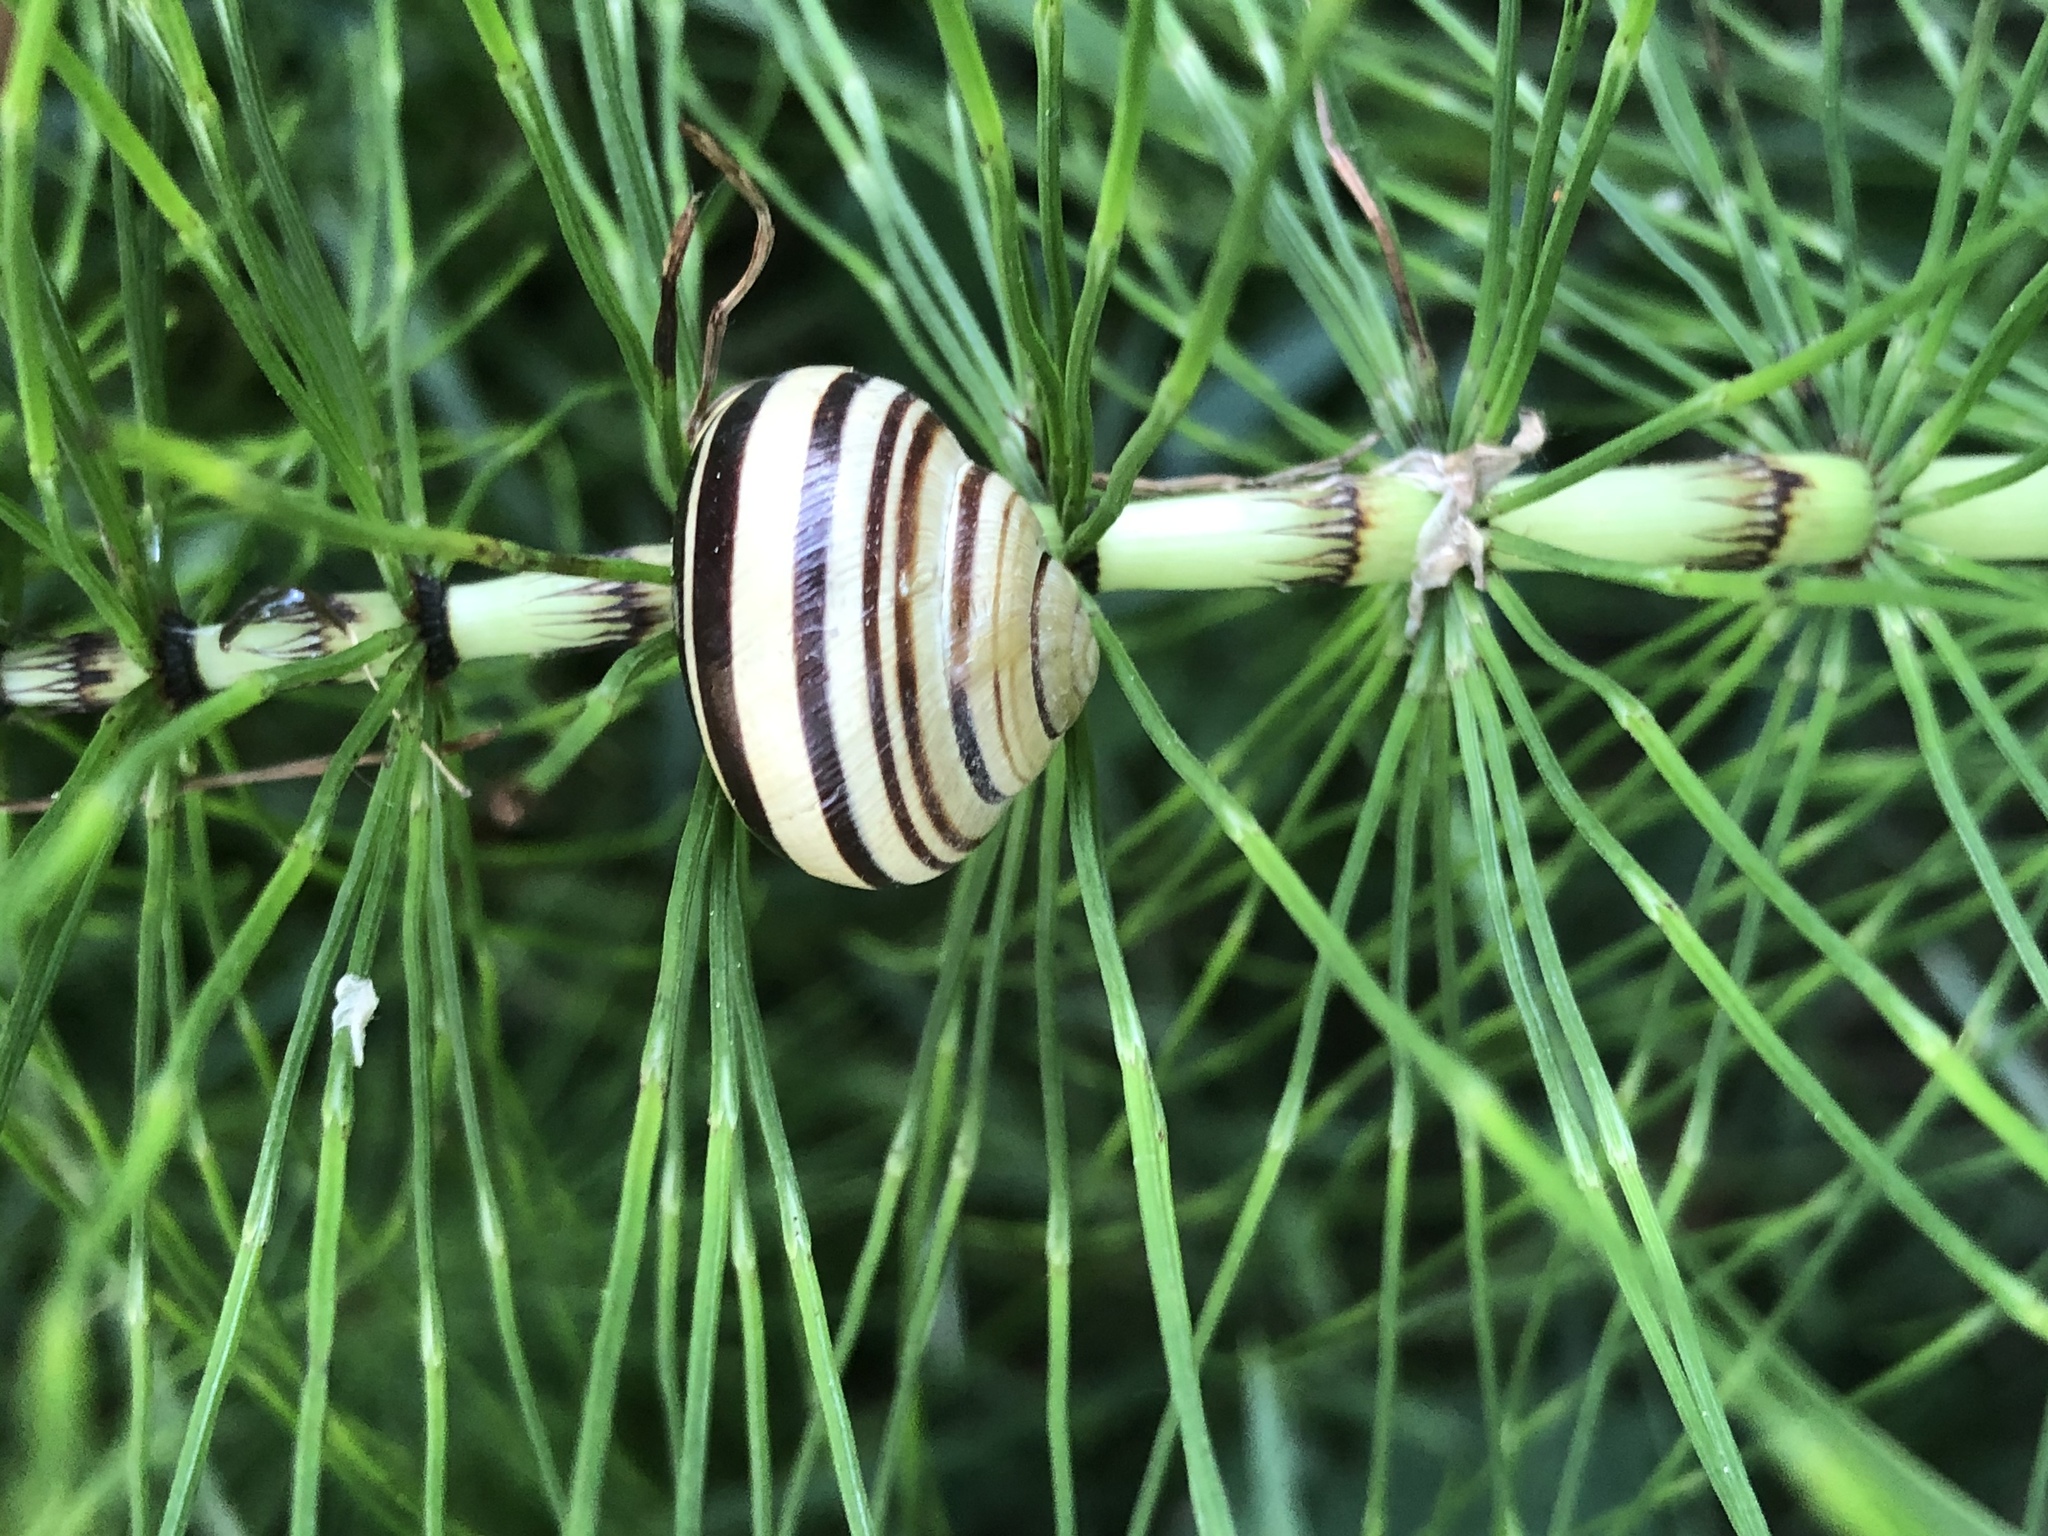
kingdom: Animalia
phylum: Mollusca
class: Gastropoda
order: Stylommatophora
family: Helicidae
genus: Cepaea
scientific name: Cepaea nemoralis
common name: Grovesnail
